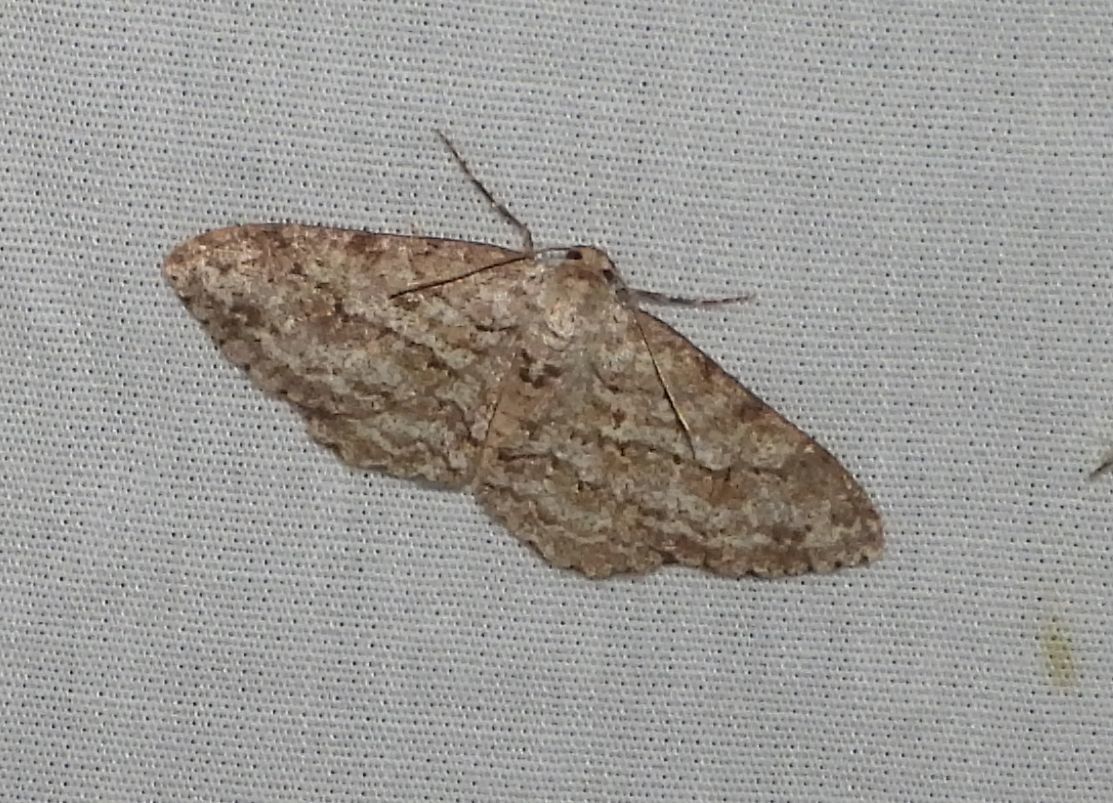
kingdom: Animalia
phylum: Arthropoda
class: Insecta
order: Lepidoptera
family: Geometridae
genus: Ectropis
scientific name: Ectropis crepuscularia
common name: Engrailed
